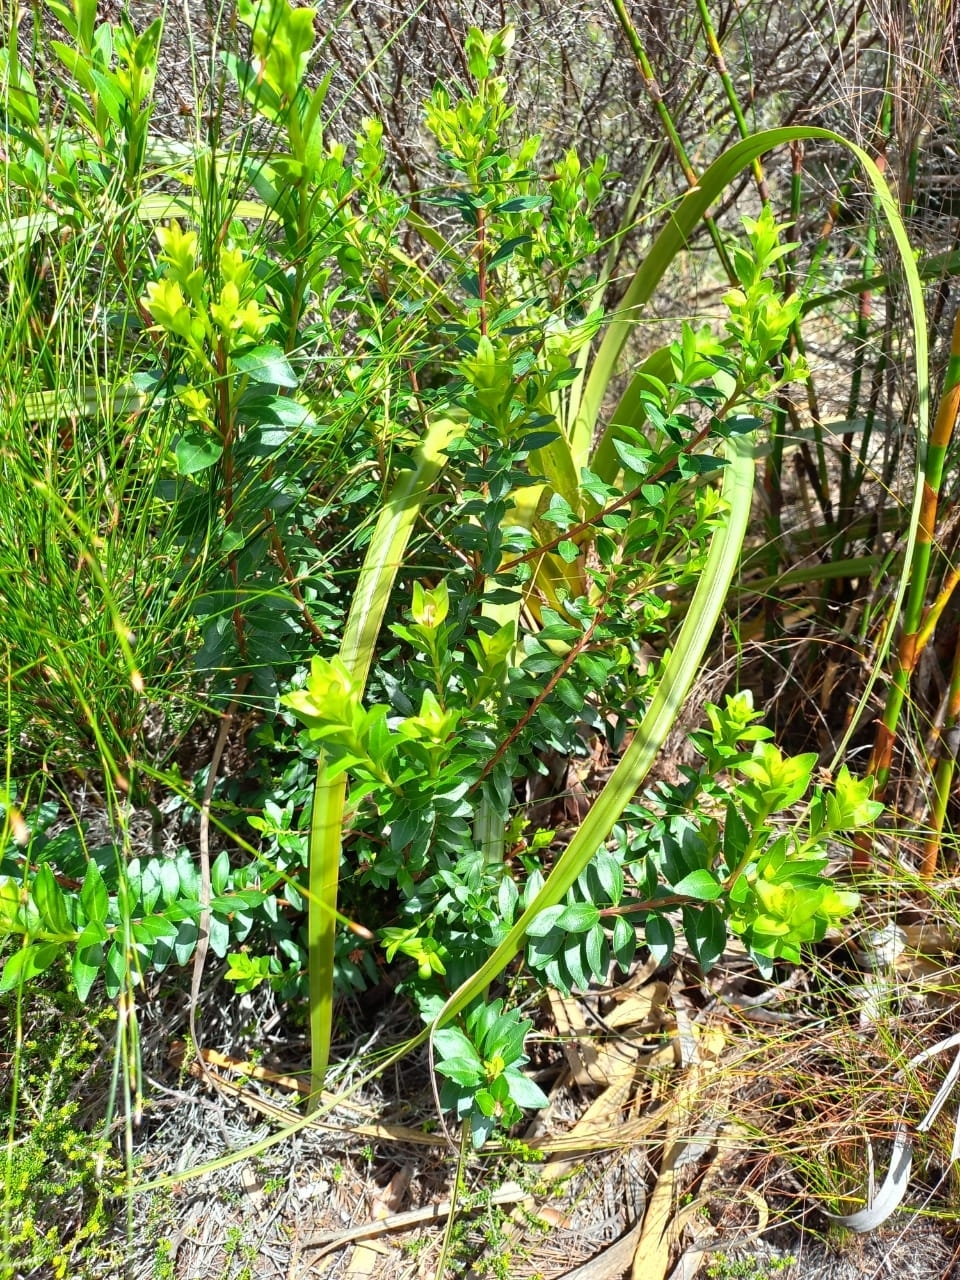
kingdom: Plantae
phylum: Tracheophyta
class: Magnoliopsida
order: Sapindales
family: Rutaceae
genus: Agathosma
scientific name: Agathosma crenulata
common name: Oval buchu
